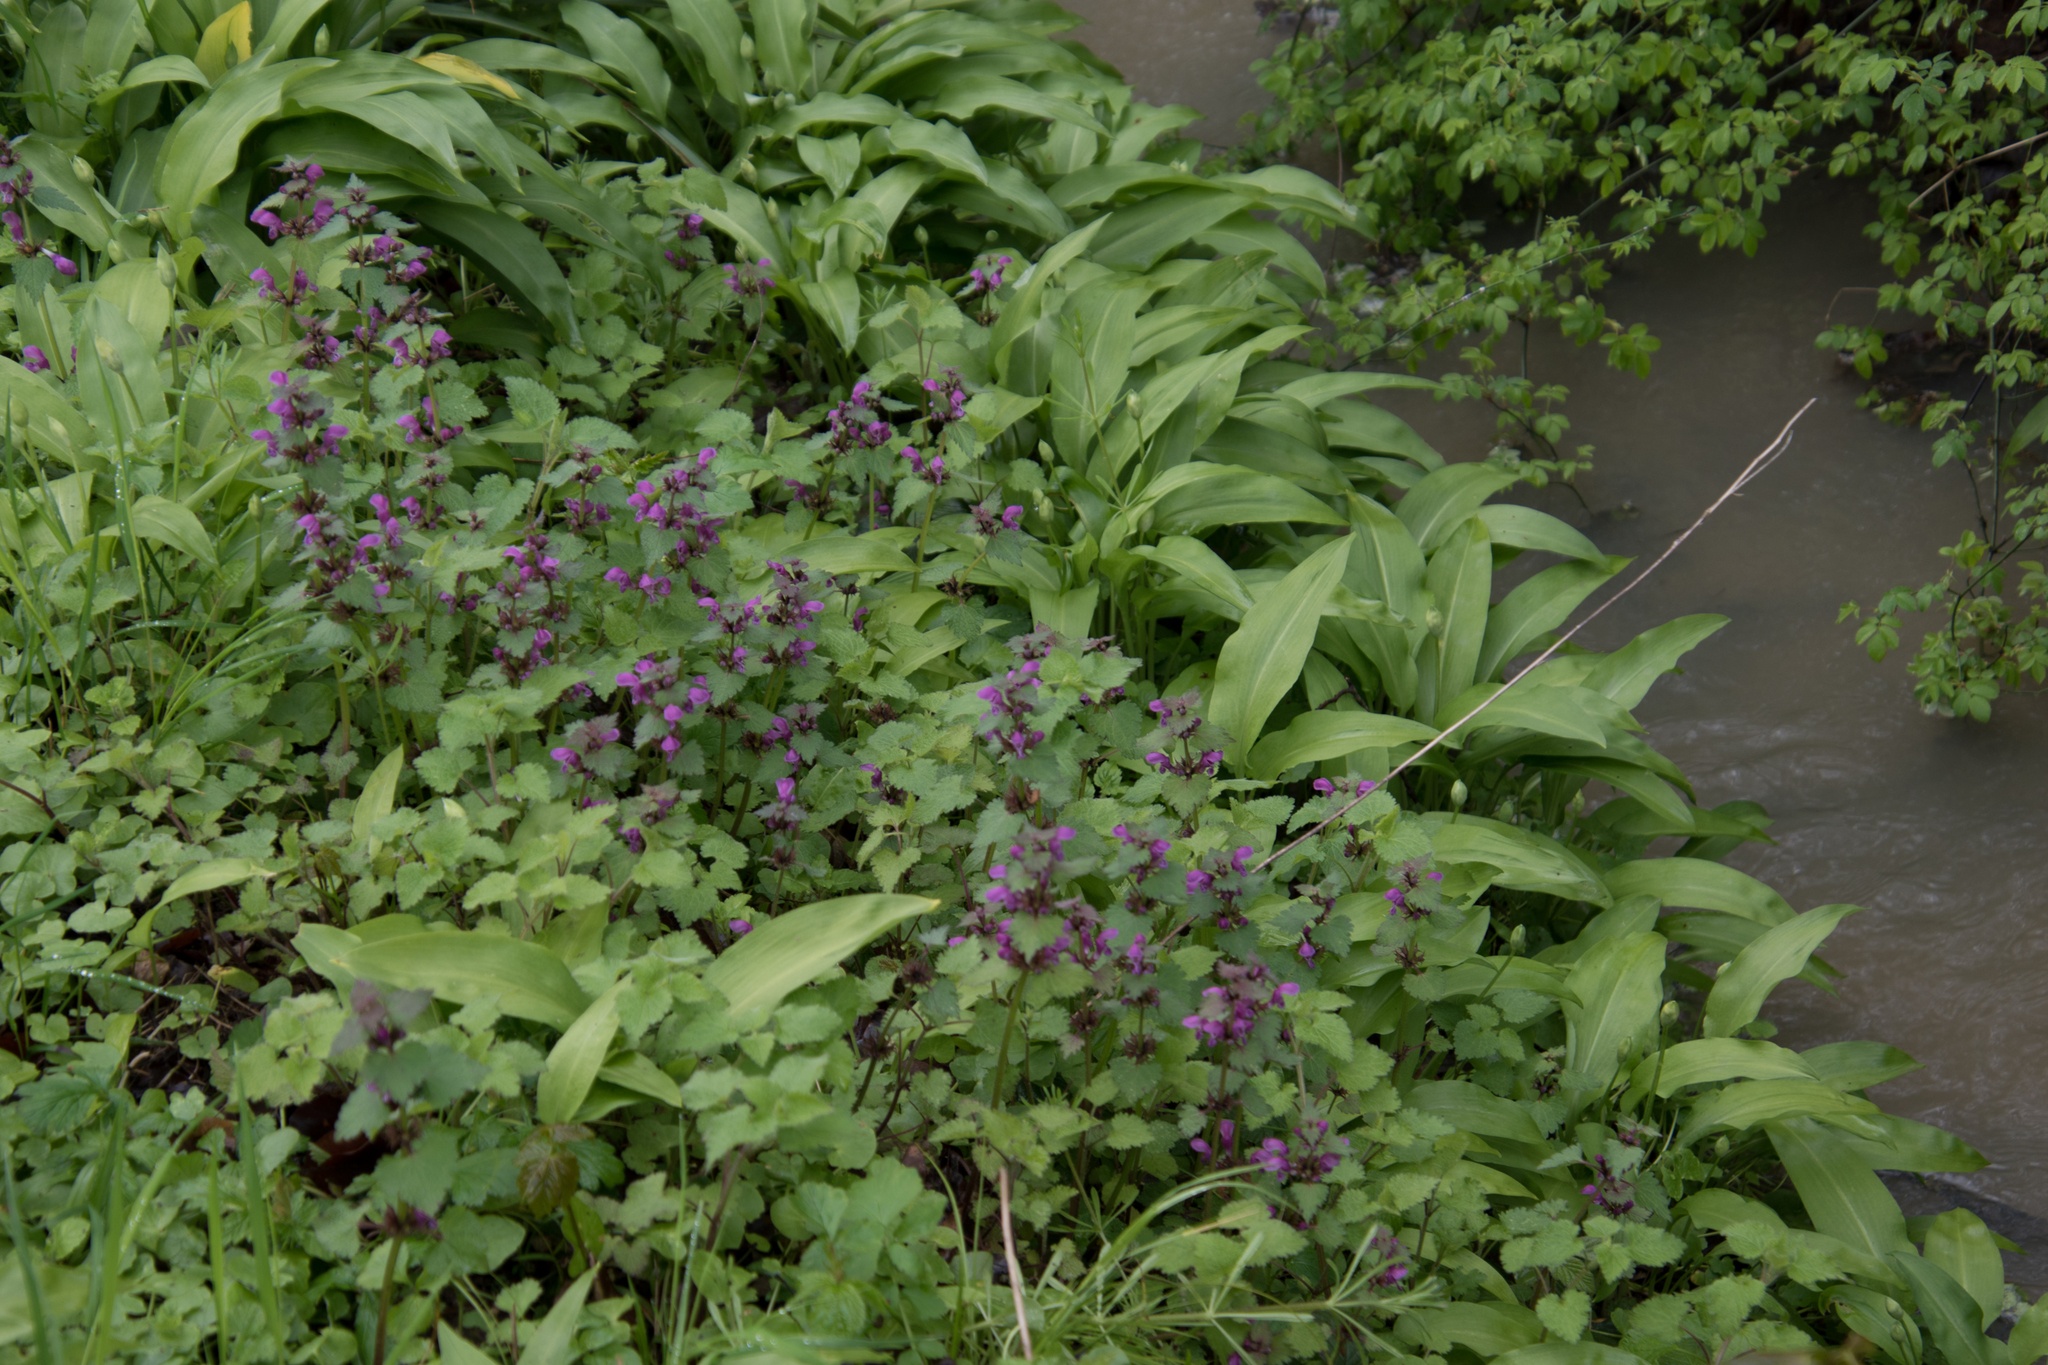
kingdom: Plantae
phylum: Tracheophyta
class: Magnoliopsida
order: Lamiales
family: Lamiaceae
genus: Lamium
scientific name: Lamium maculatum
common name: Spotted dead-nettle
